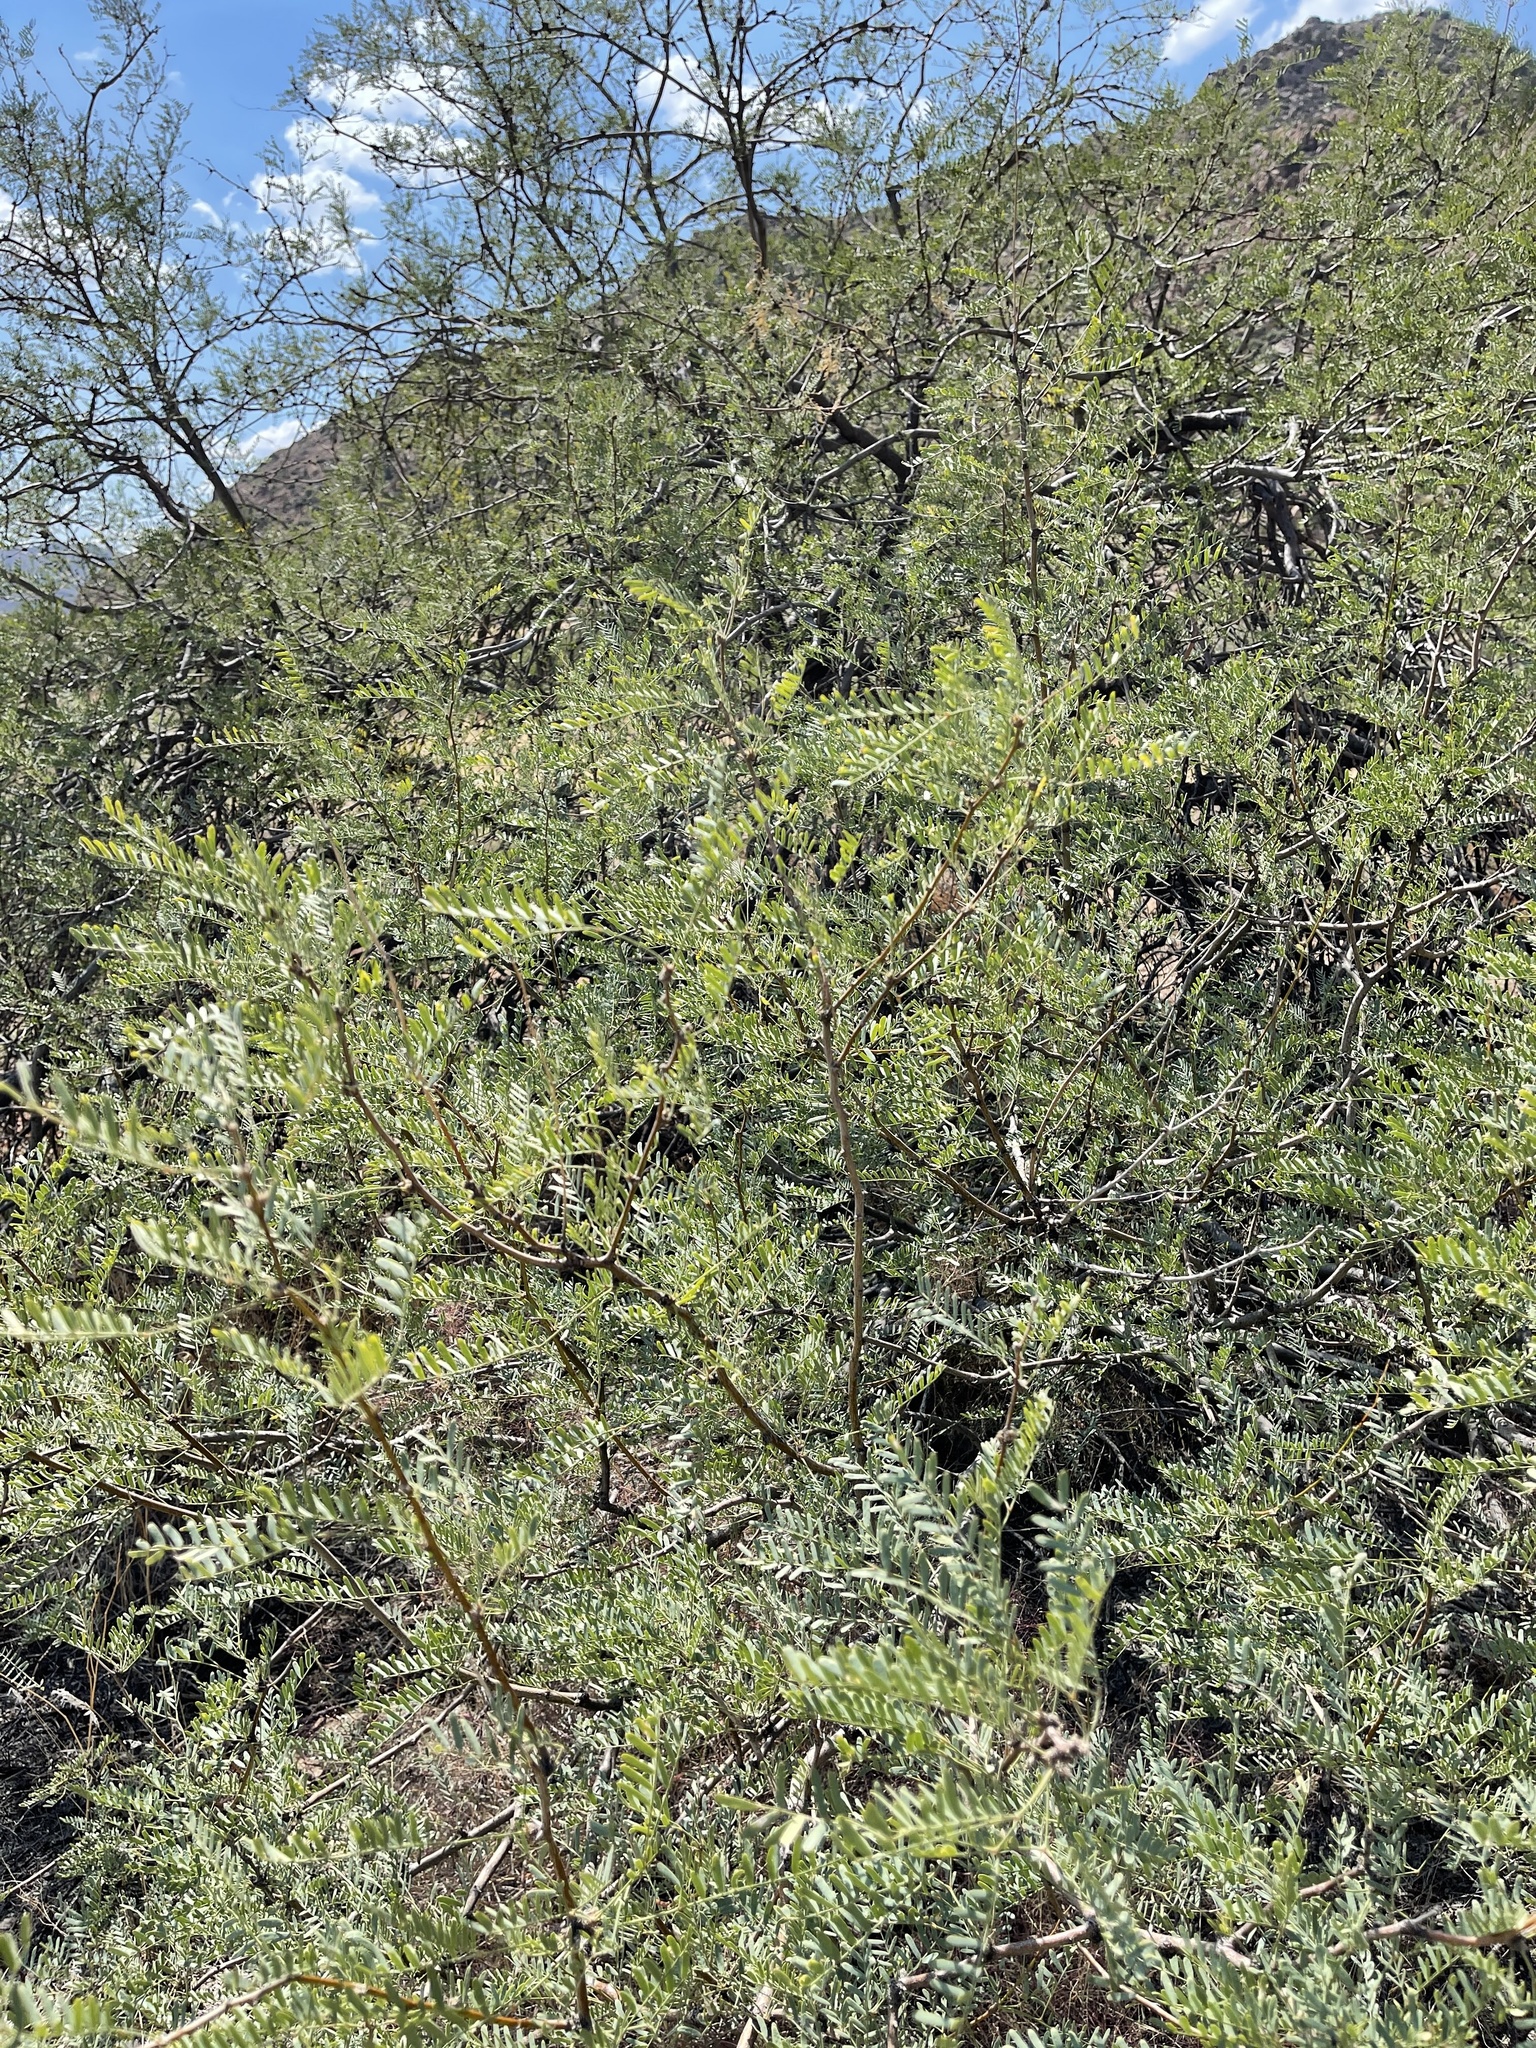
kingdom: Plantae
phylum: Tracheophyta
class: Magnoliopsida
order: Fabales
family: Fabaceae
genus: Prosopis
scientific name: Prosopis pubescens
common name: Screw-bean
